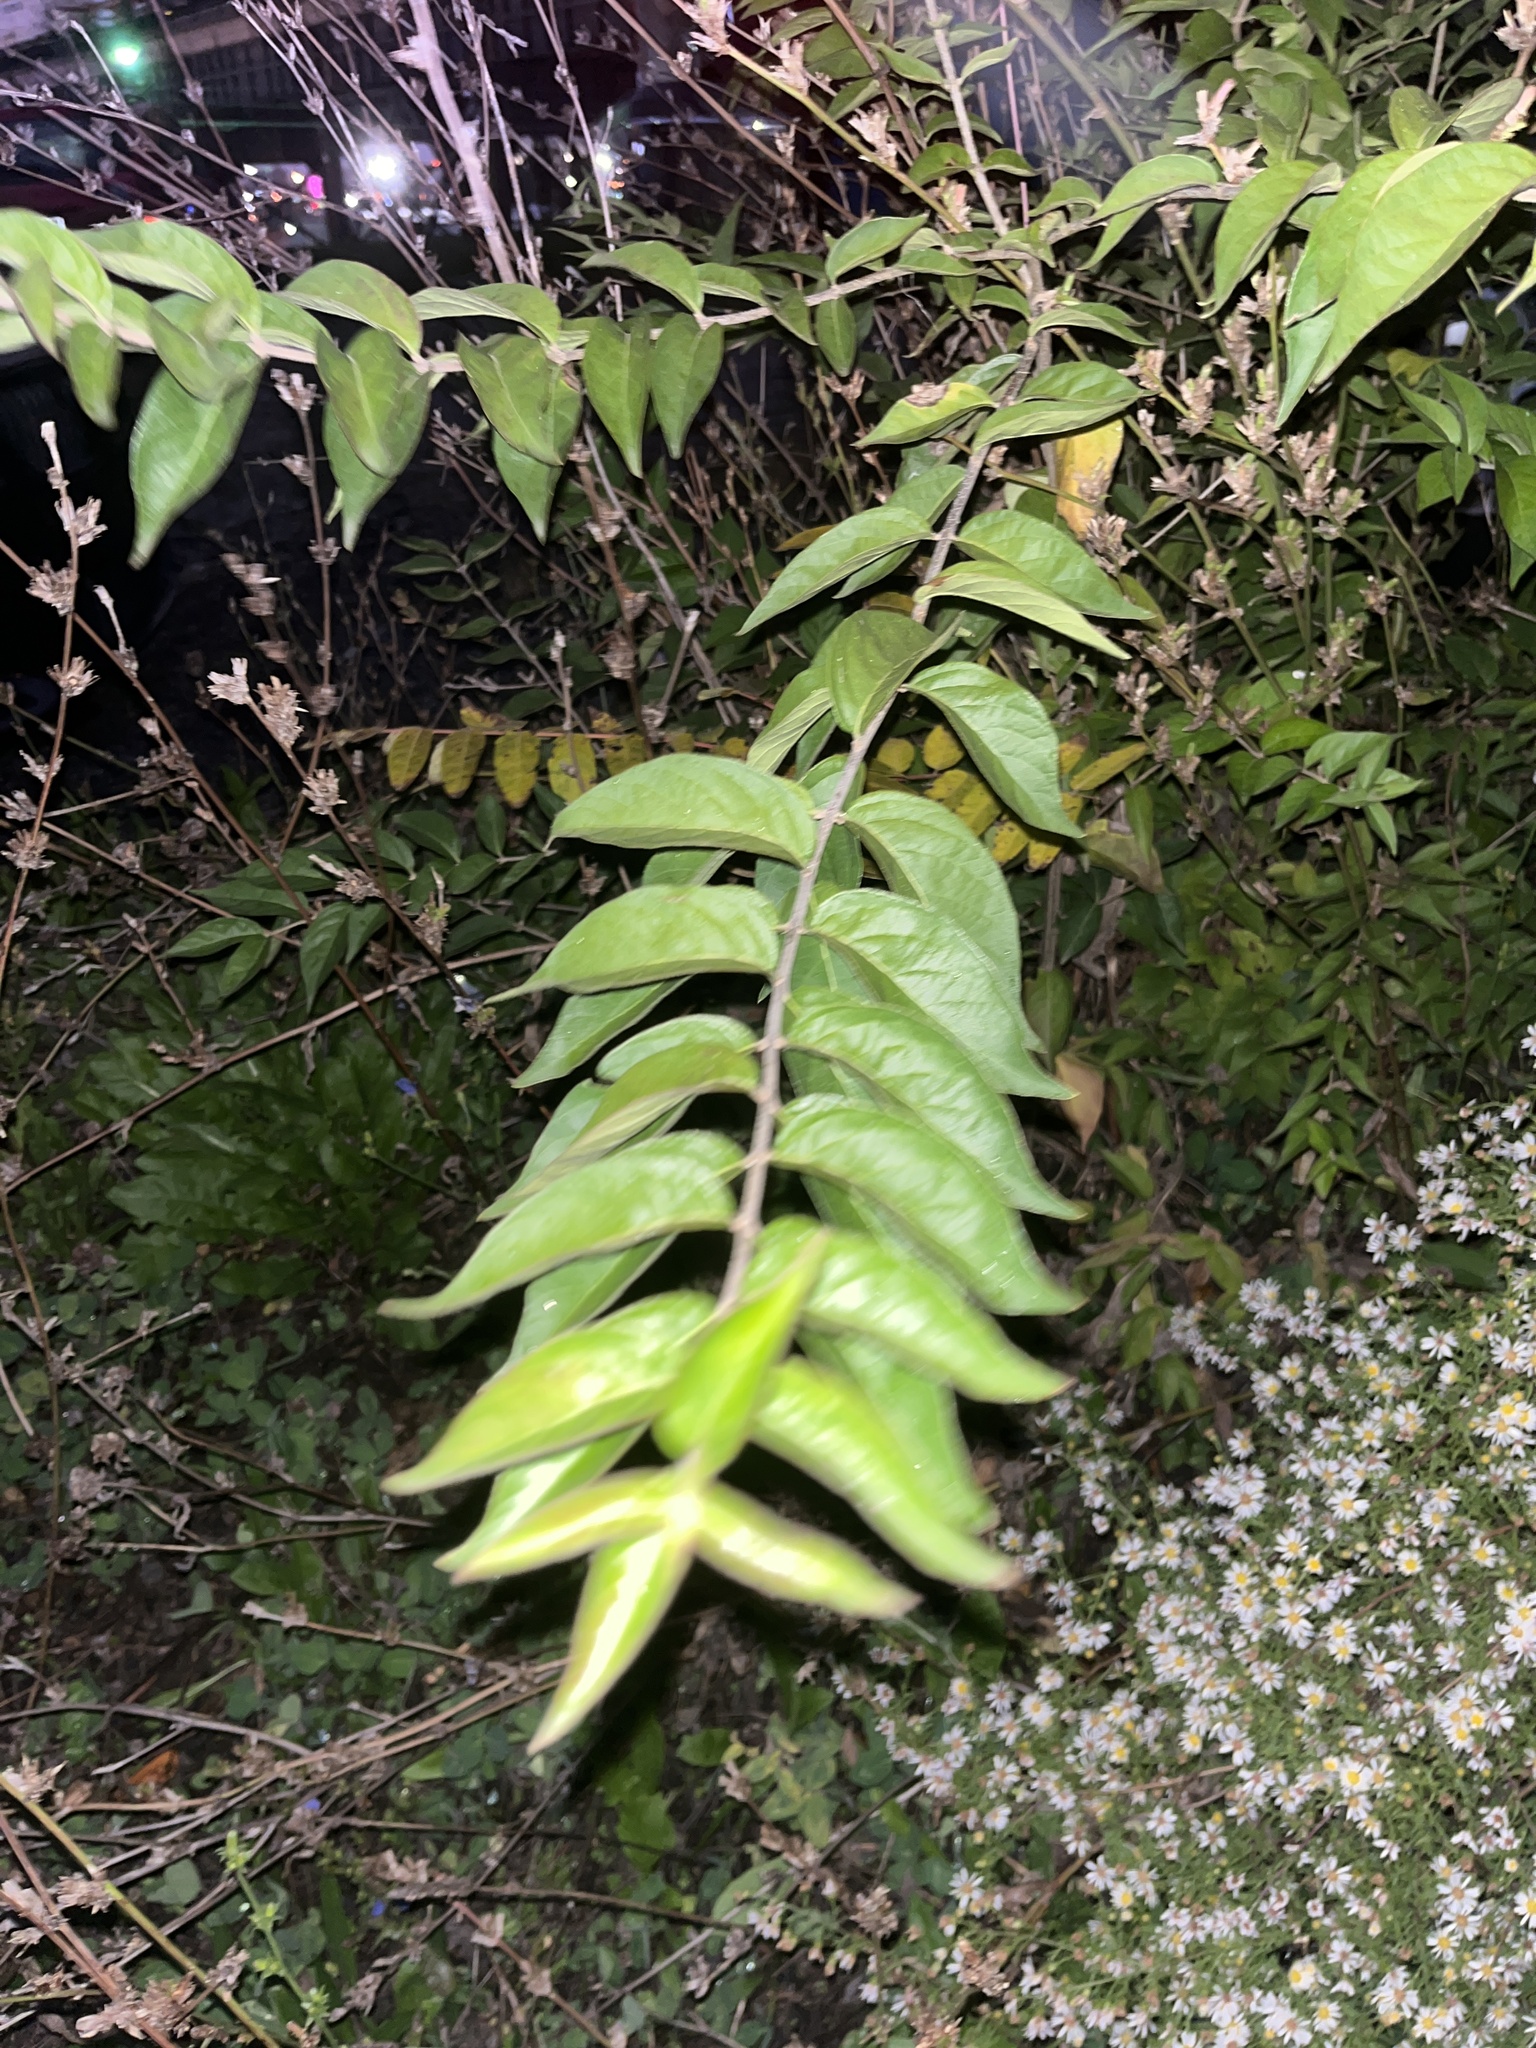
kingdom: Plantae
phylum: Tracheophyta
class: Magnoliopsida
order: Dipsacales
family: Caprifoliaceae
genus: Lonicera
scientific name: Lonicera maackii
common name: Amur honeysuckle
